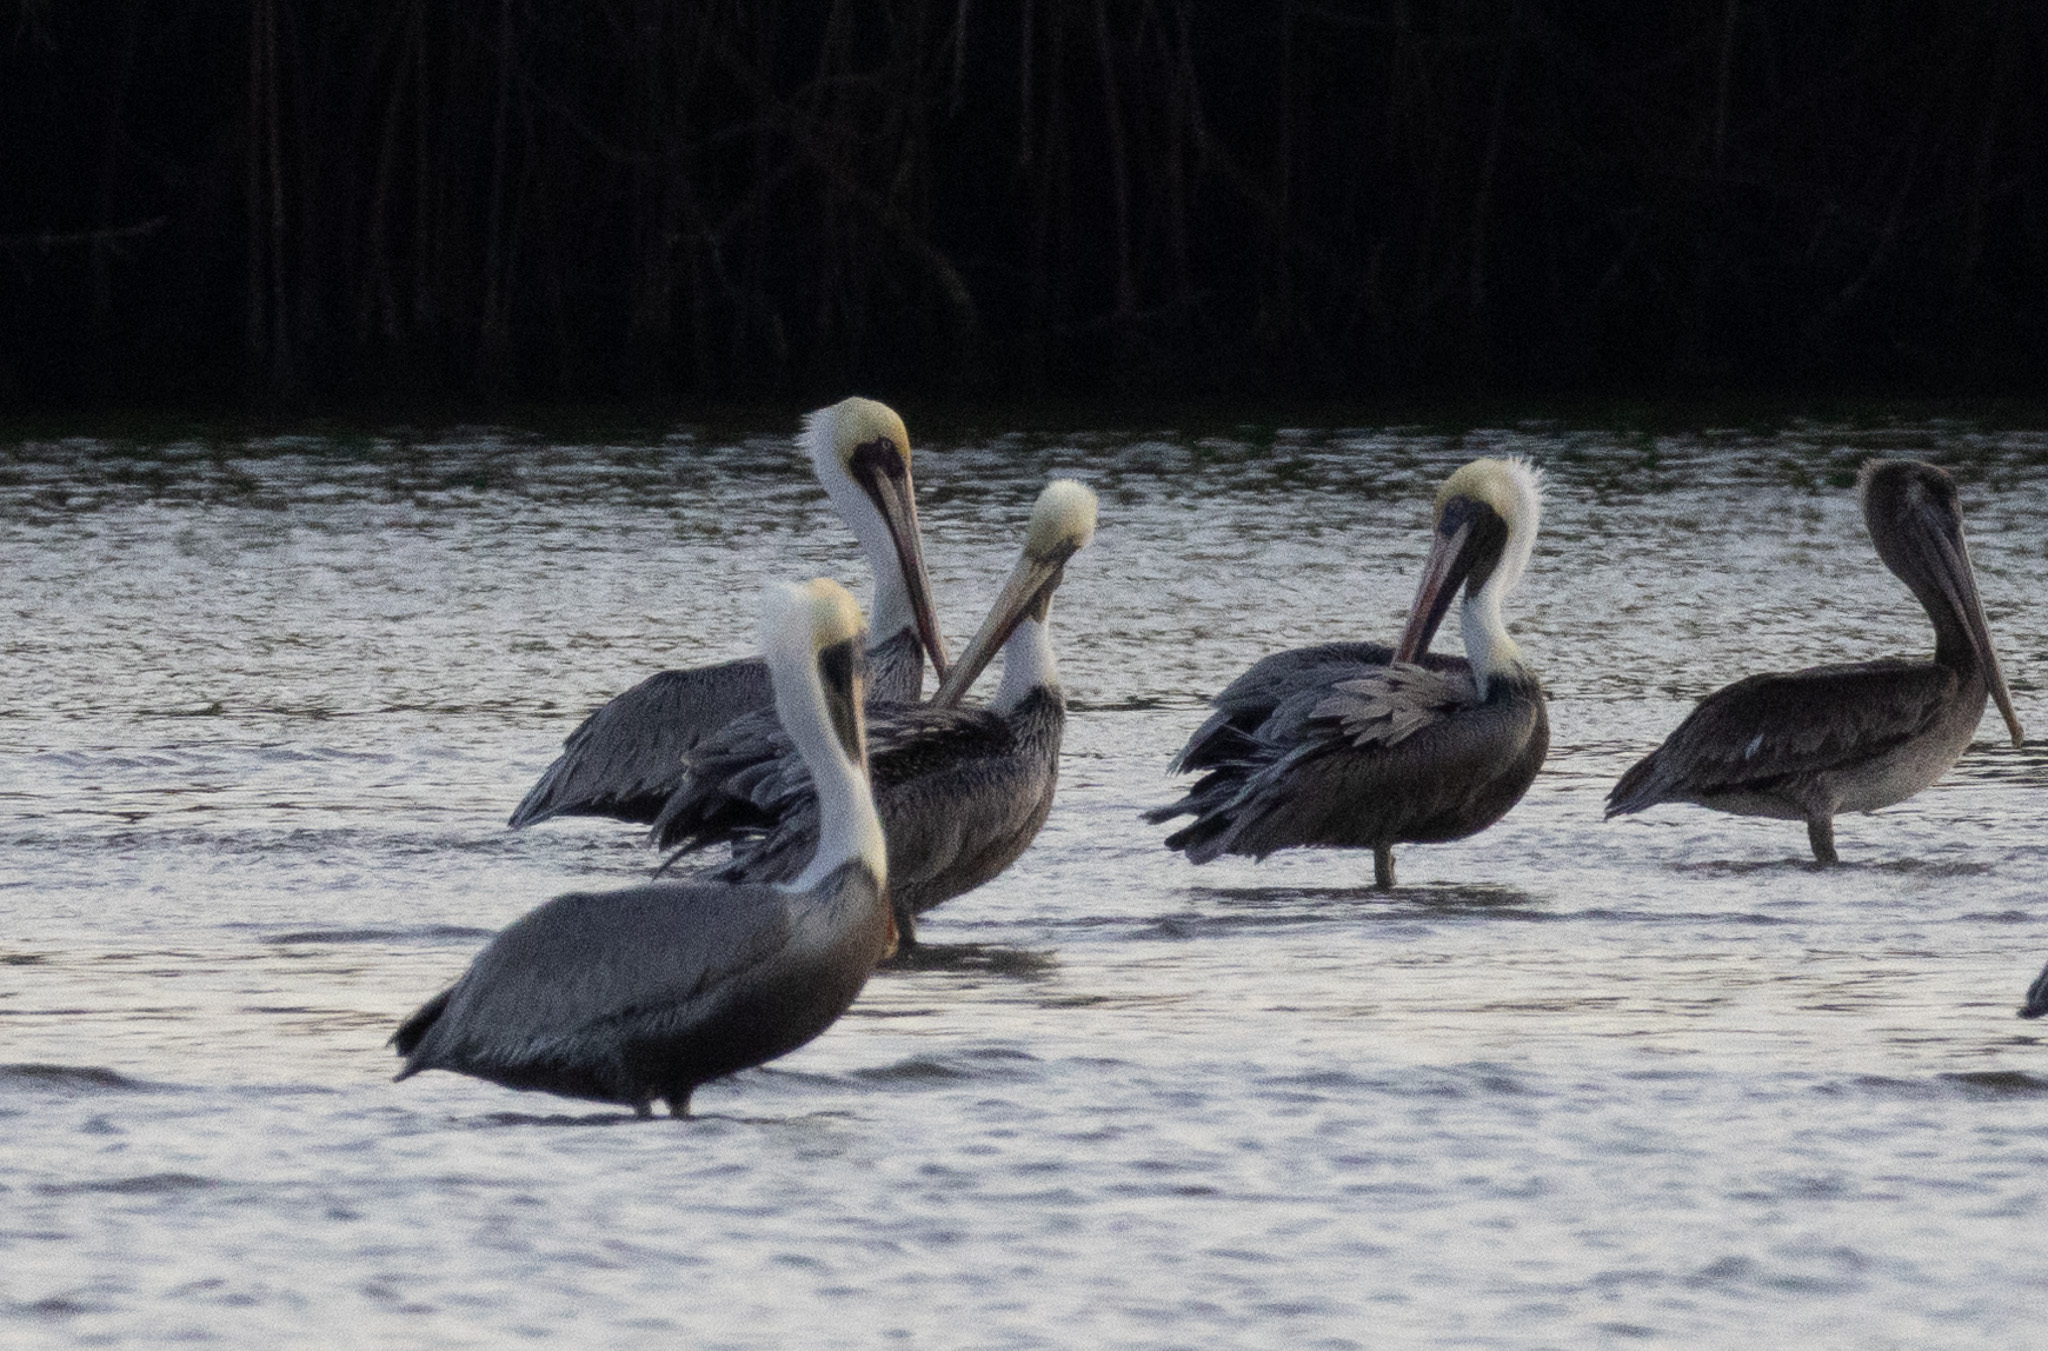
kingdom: Animalia
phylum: Chordata
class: Aves
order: Pelecaniformes
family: Pelecanidae
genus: Pelecanus
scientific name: Pelecanus occidentalis
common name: Brown pelican
